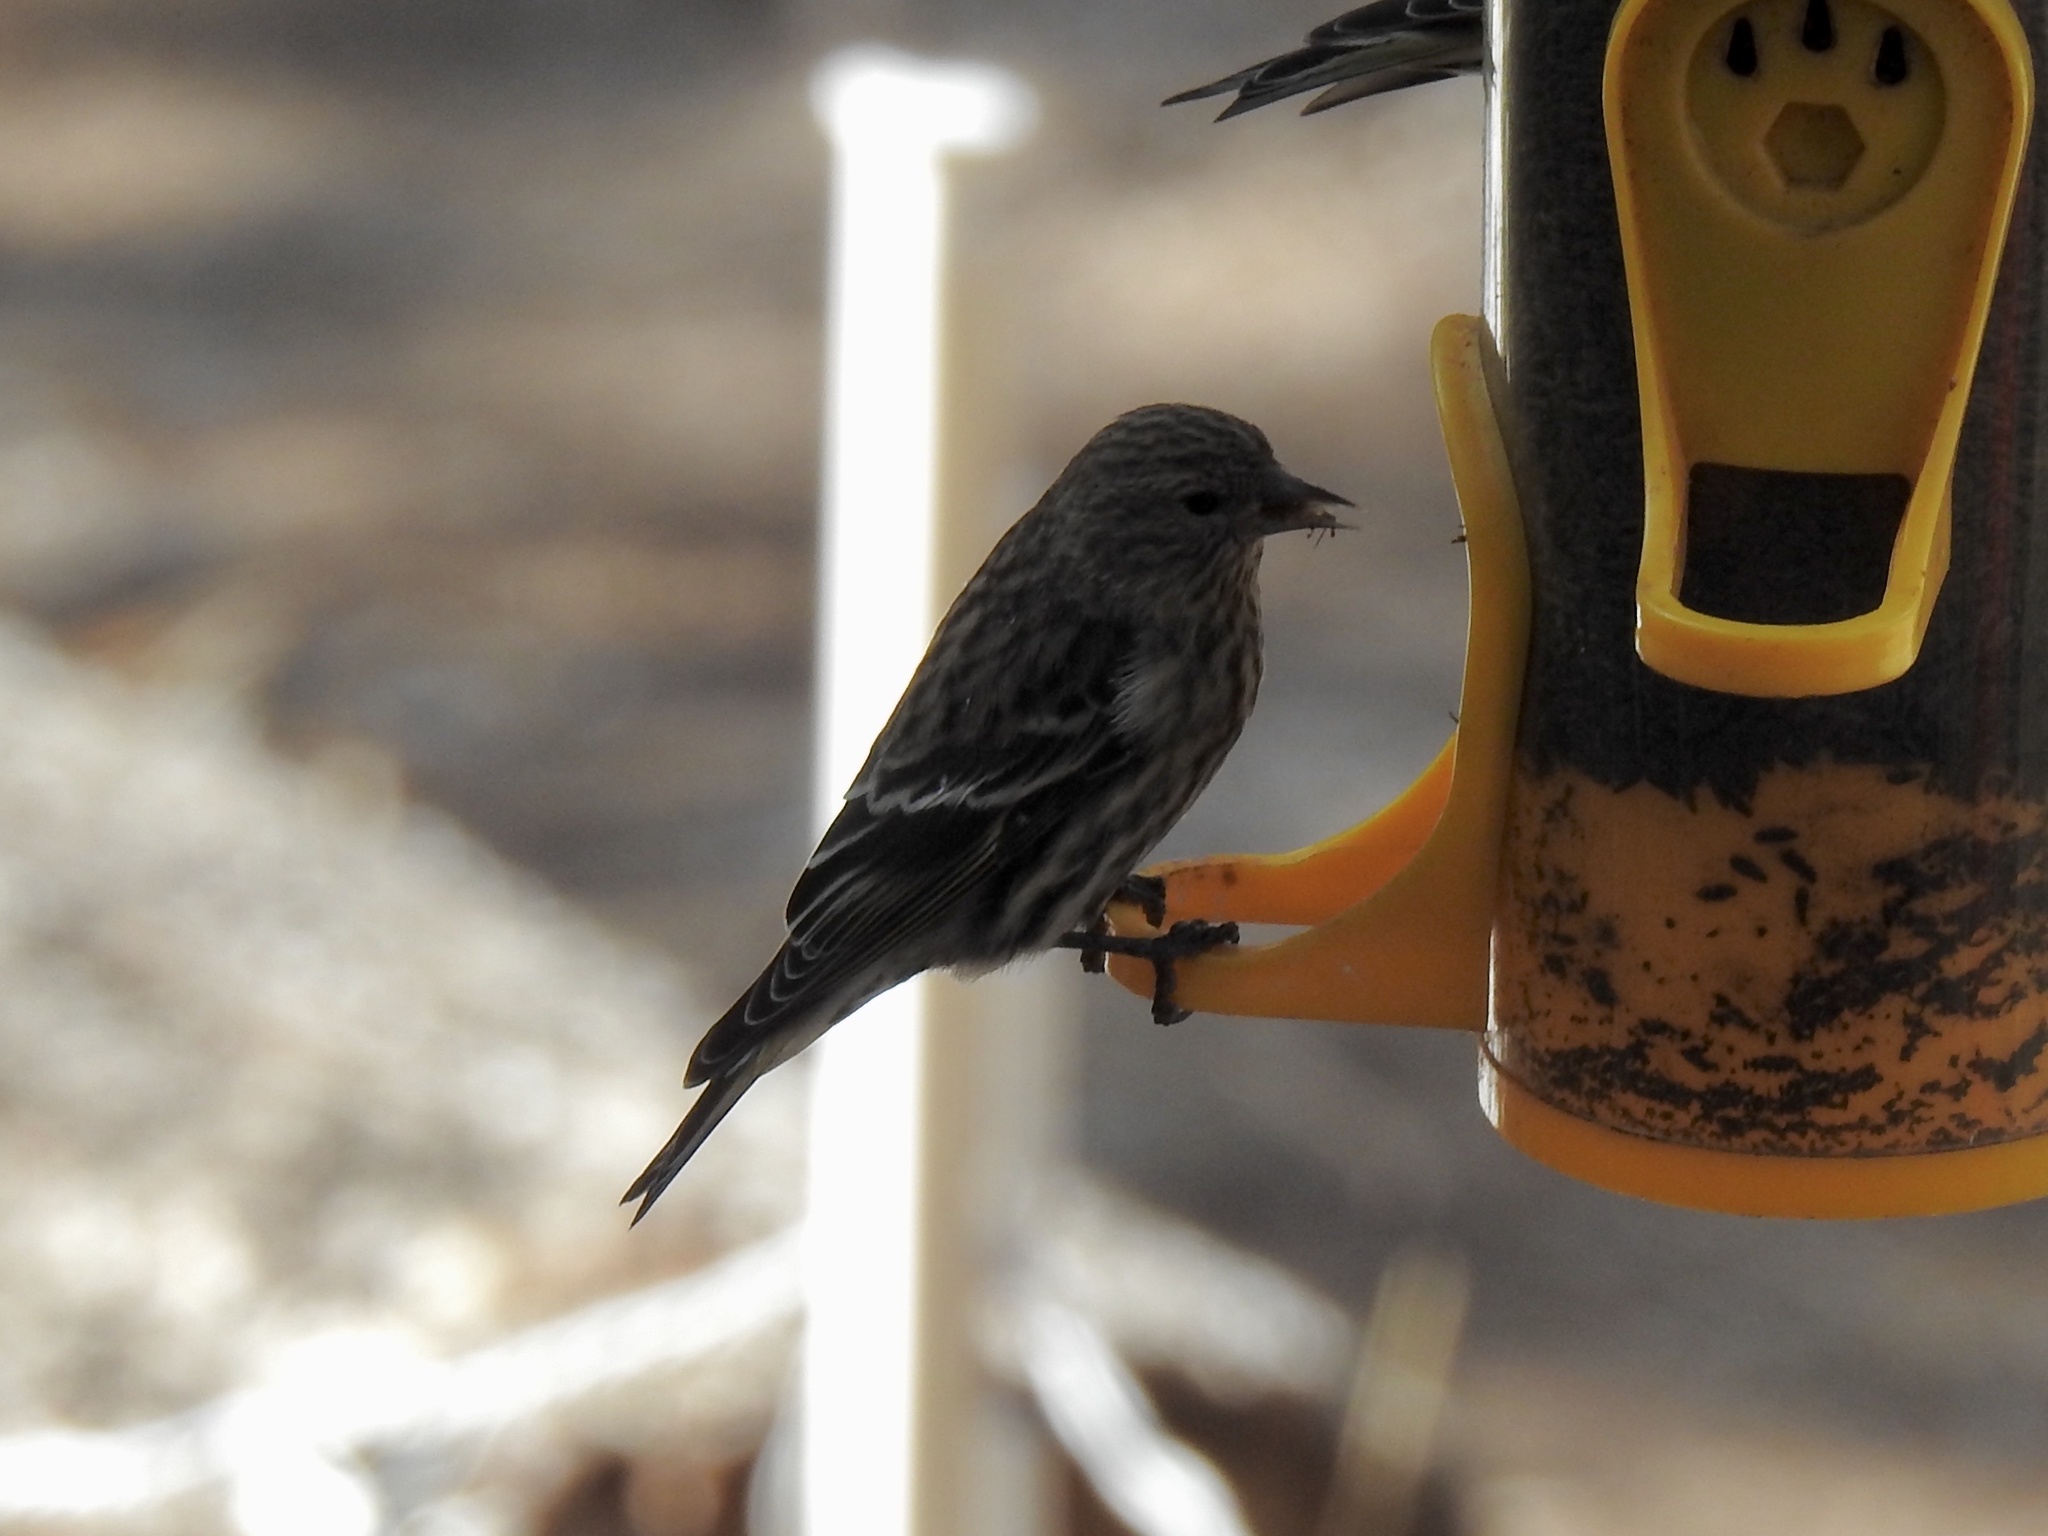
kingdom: Animalia
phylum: Chordata
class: Aves
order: Passeriformes
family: Fringillidae
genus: Spinus
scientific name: Spinus pinus
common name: Pine siskin
